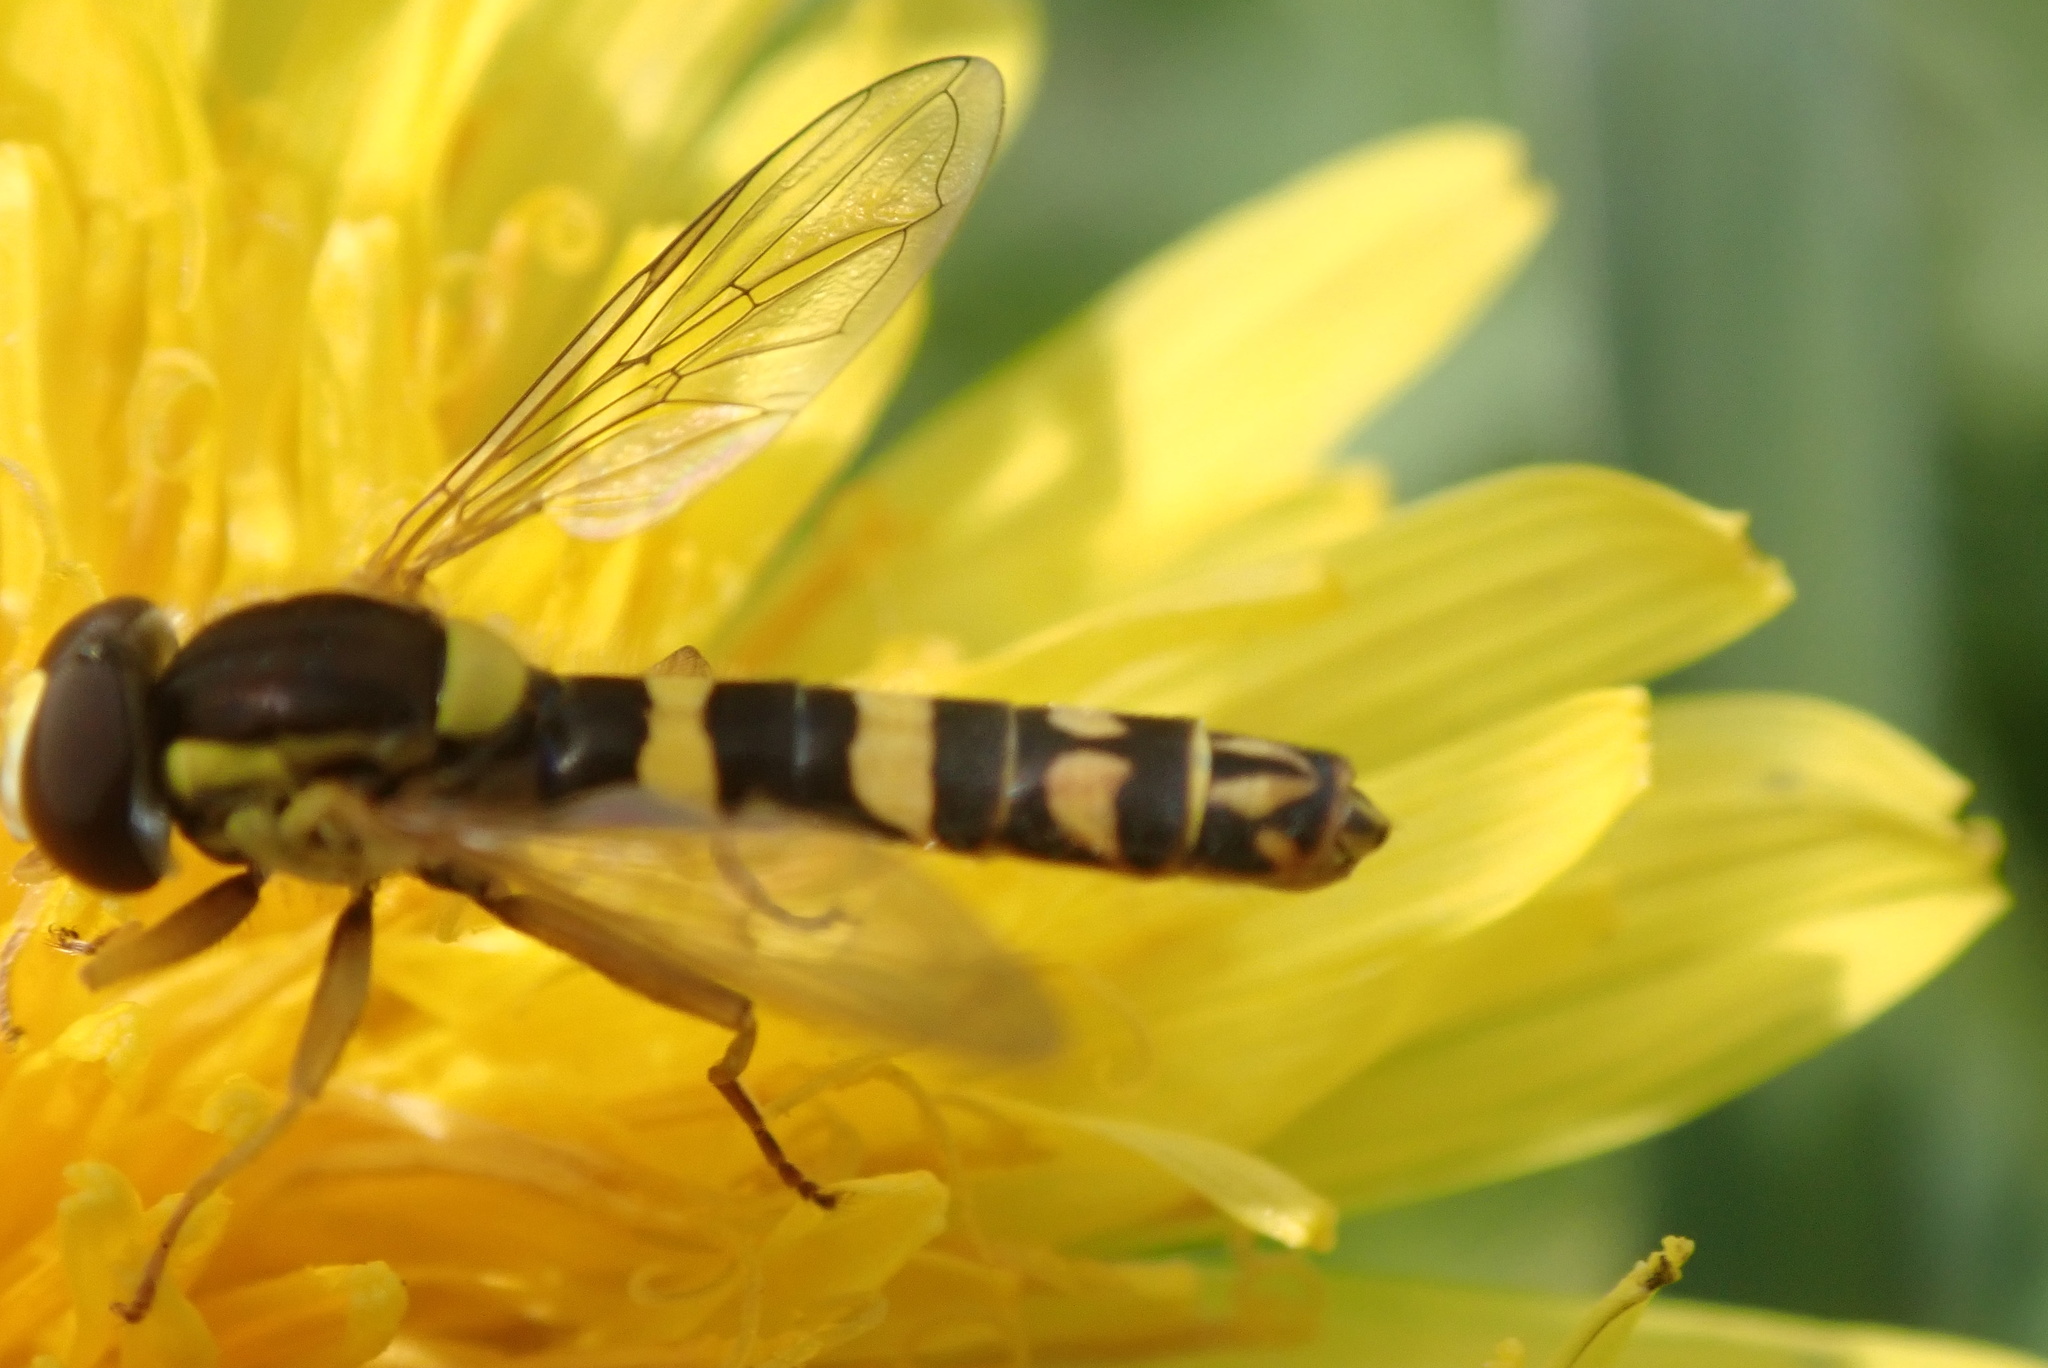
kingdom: Animalia
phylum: Arthropoda
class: Insecta
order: Diptera
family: Syrphidae
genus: Sphaerophoria
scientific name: Sphaerophoria scripta
